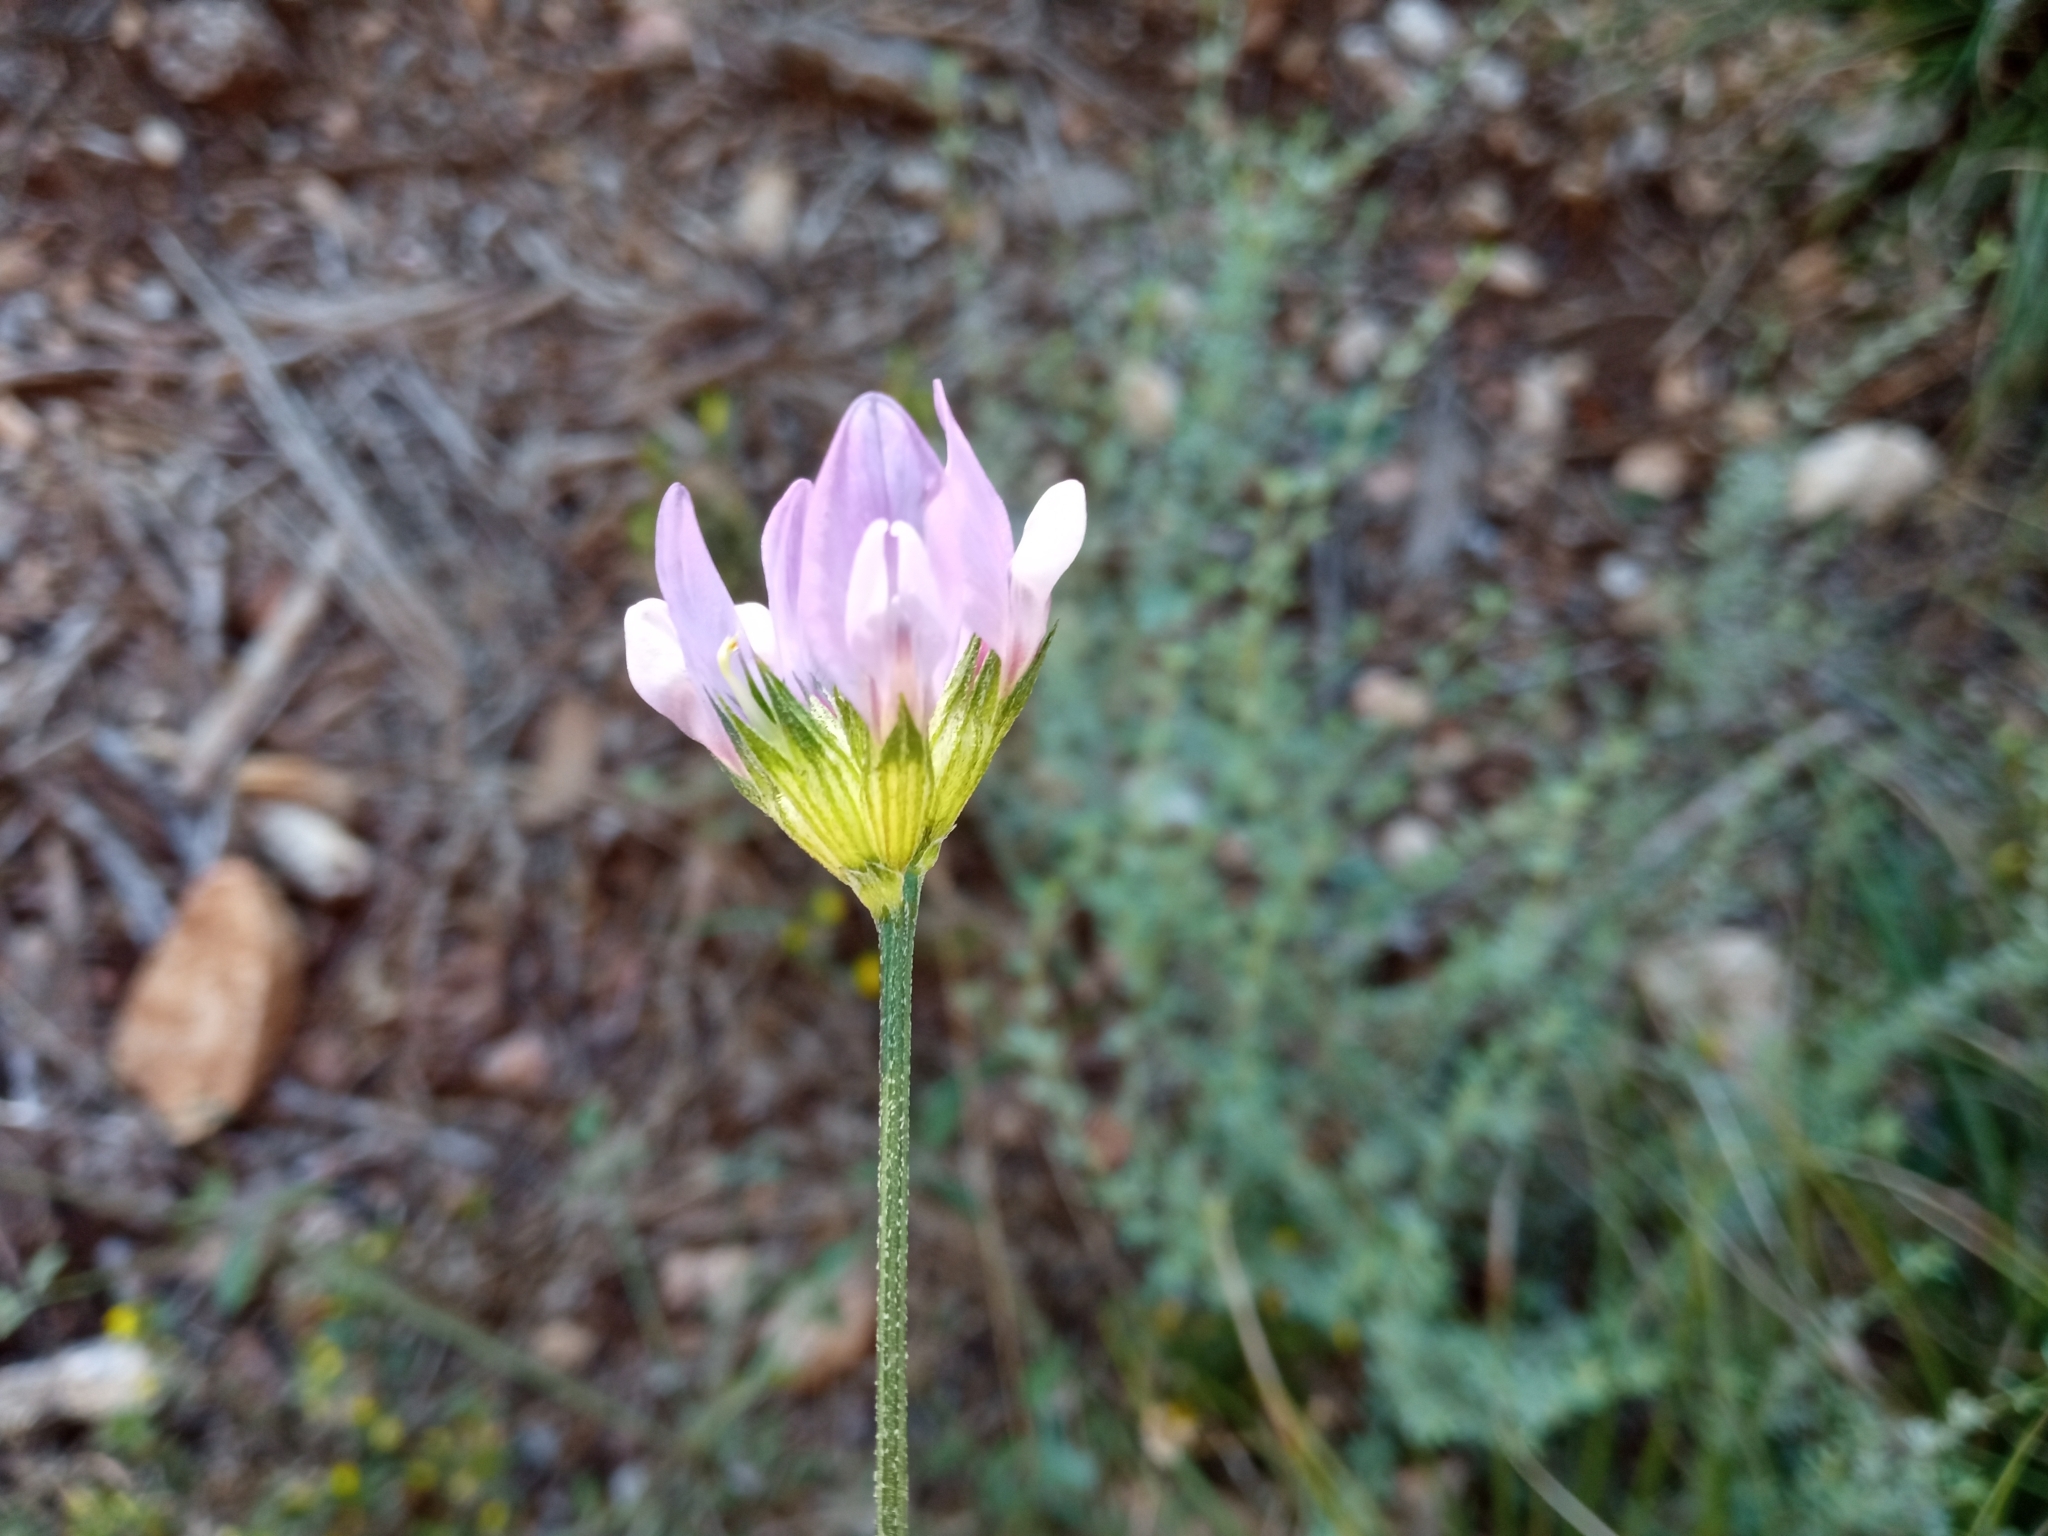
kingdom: Plantae
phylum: Tracheophyta
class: Magnoliopsida
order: Fabales
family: Fabaceae
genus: Bituminaria
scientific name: Bituminaria bituminosa
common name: Arabian pea
